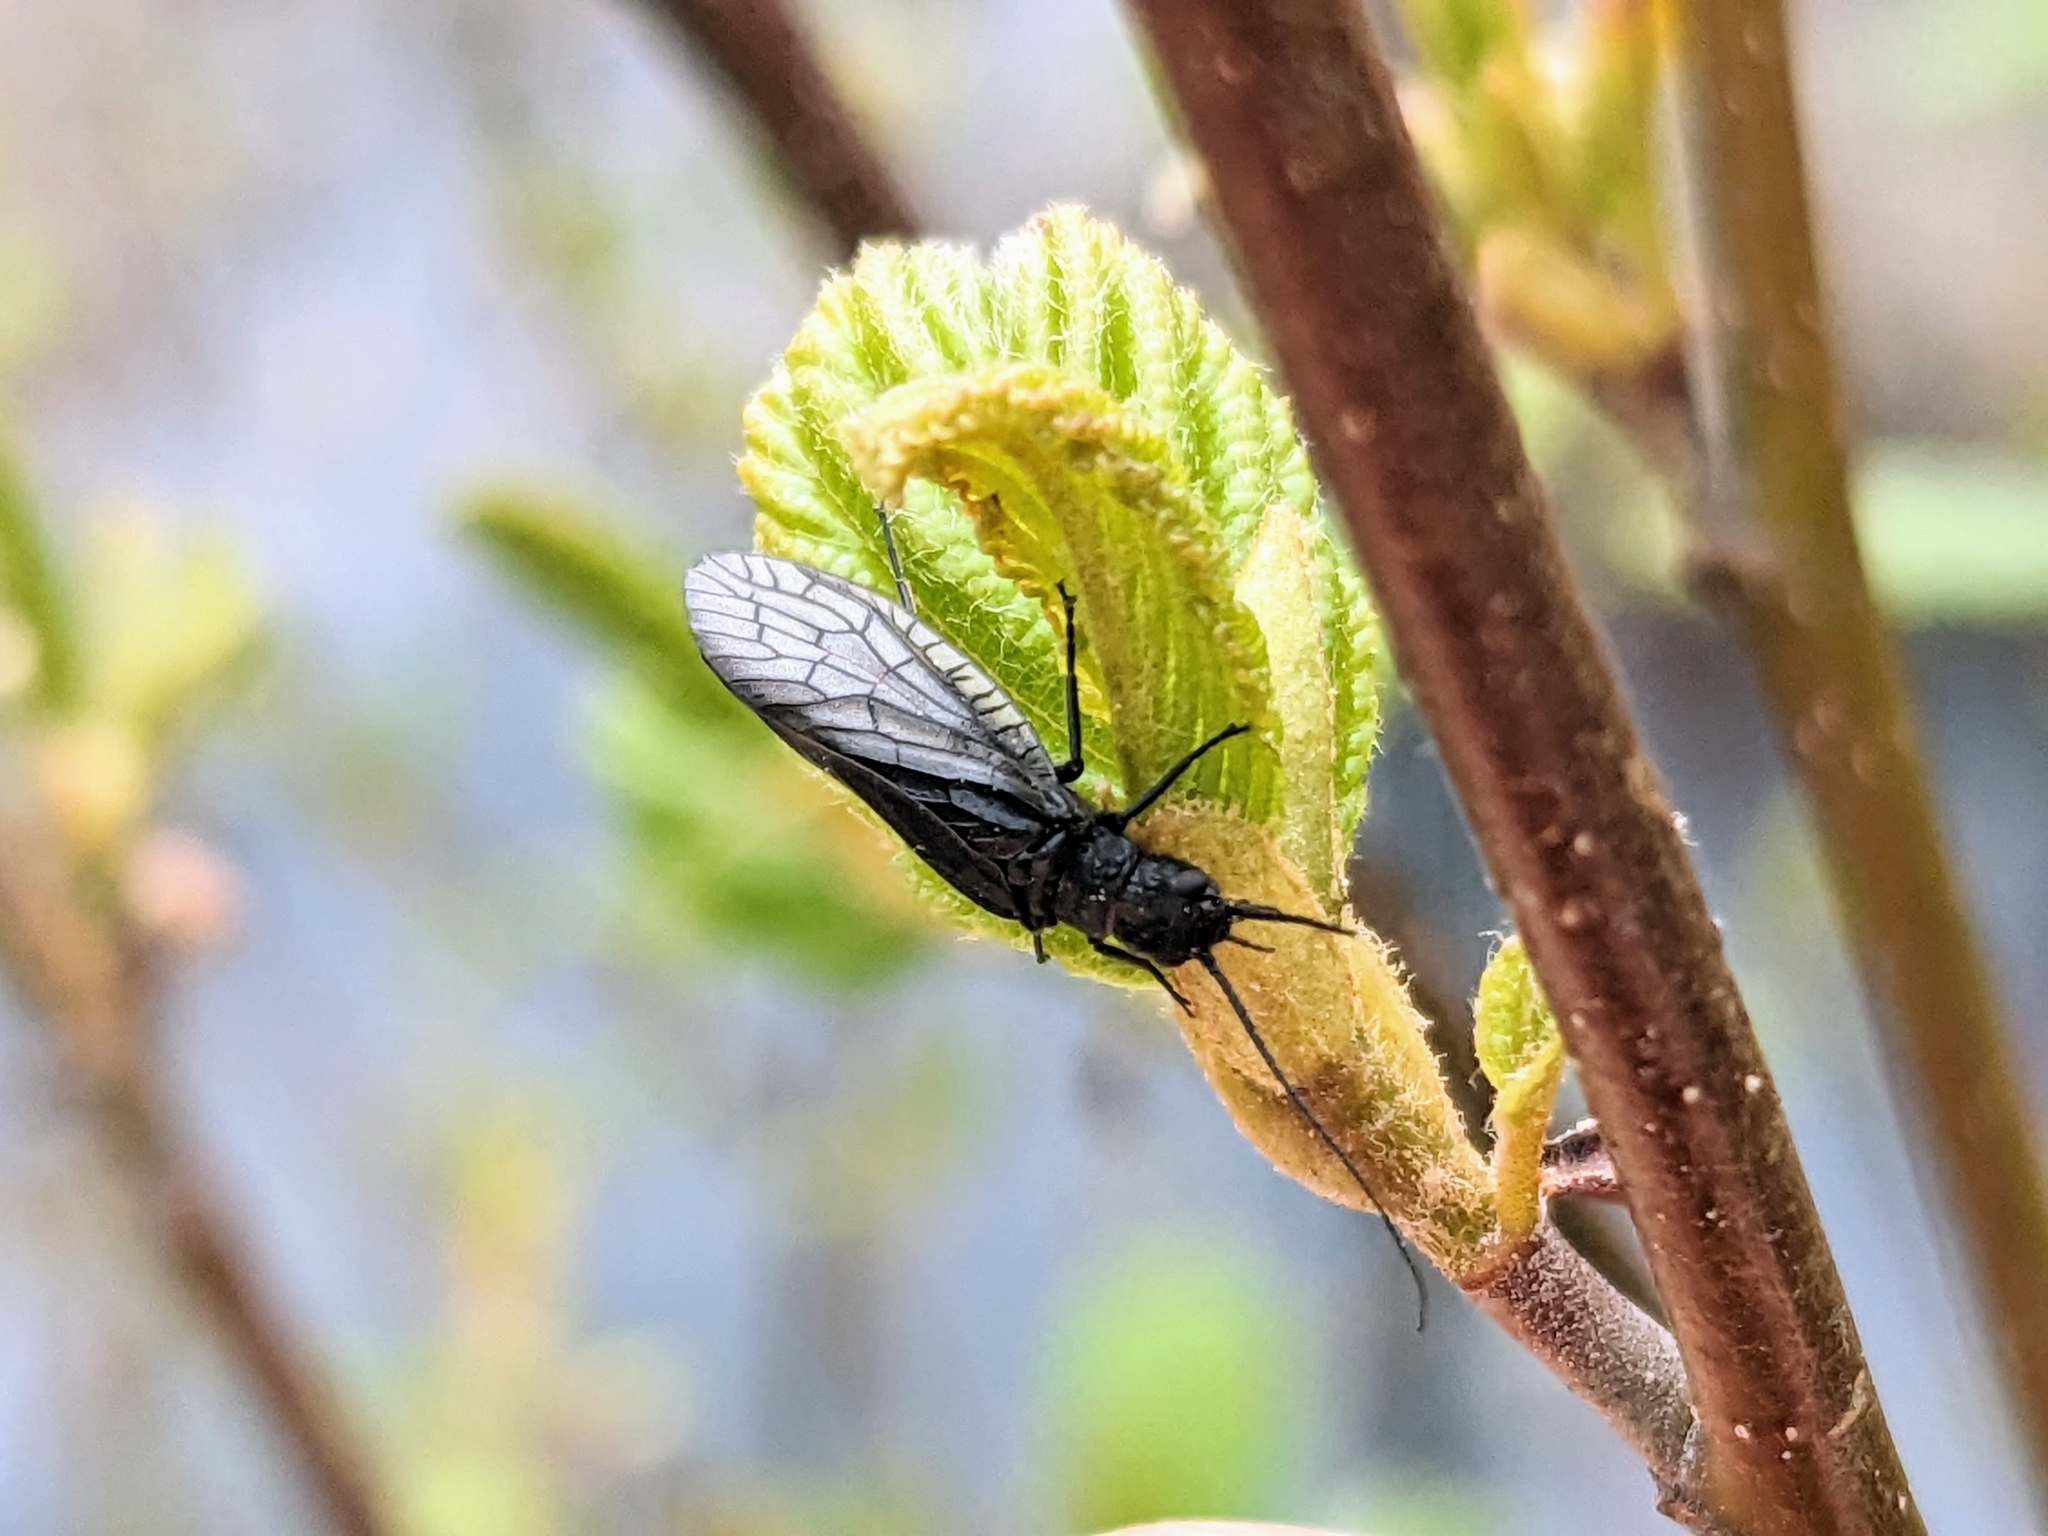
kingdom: Animalia
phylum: Arthropoda
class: Insecta
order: Megaloptera
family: Sialidae
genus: Sialis
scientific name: Sialis
